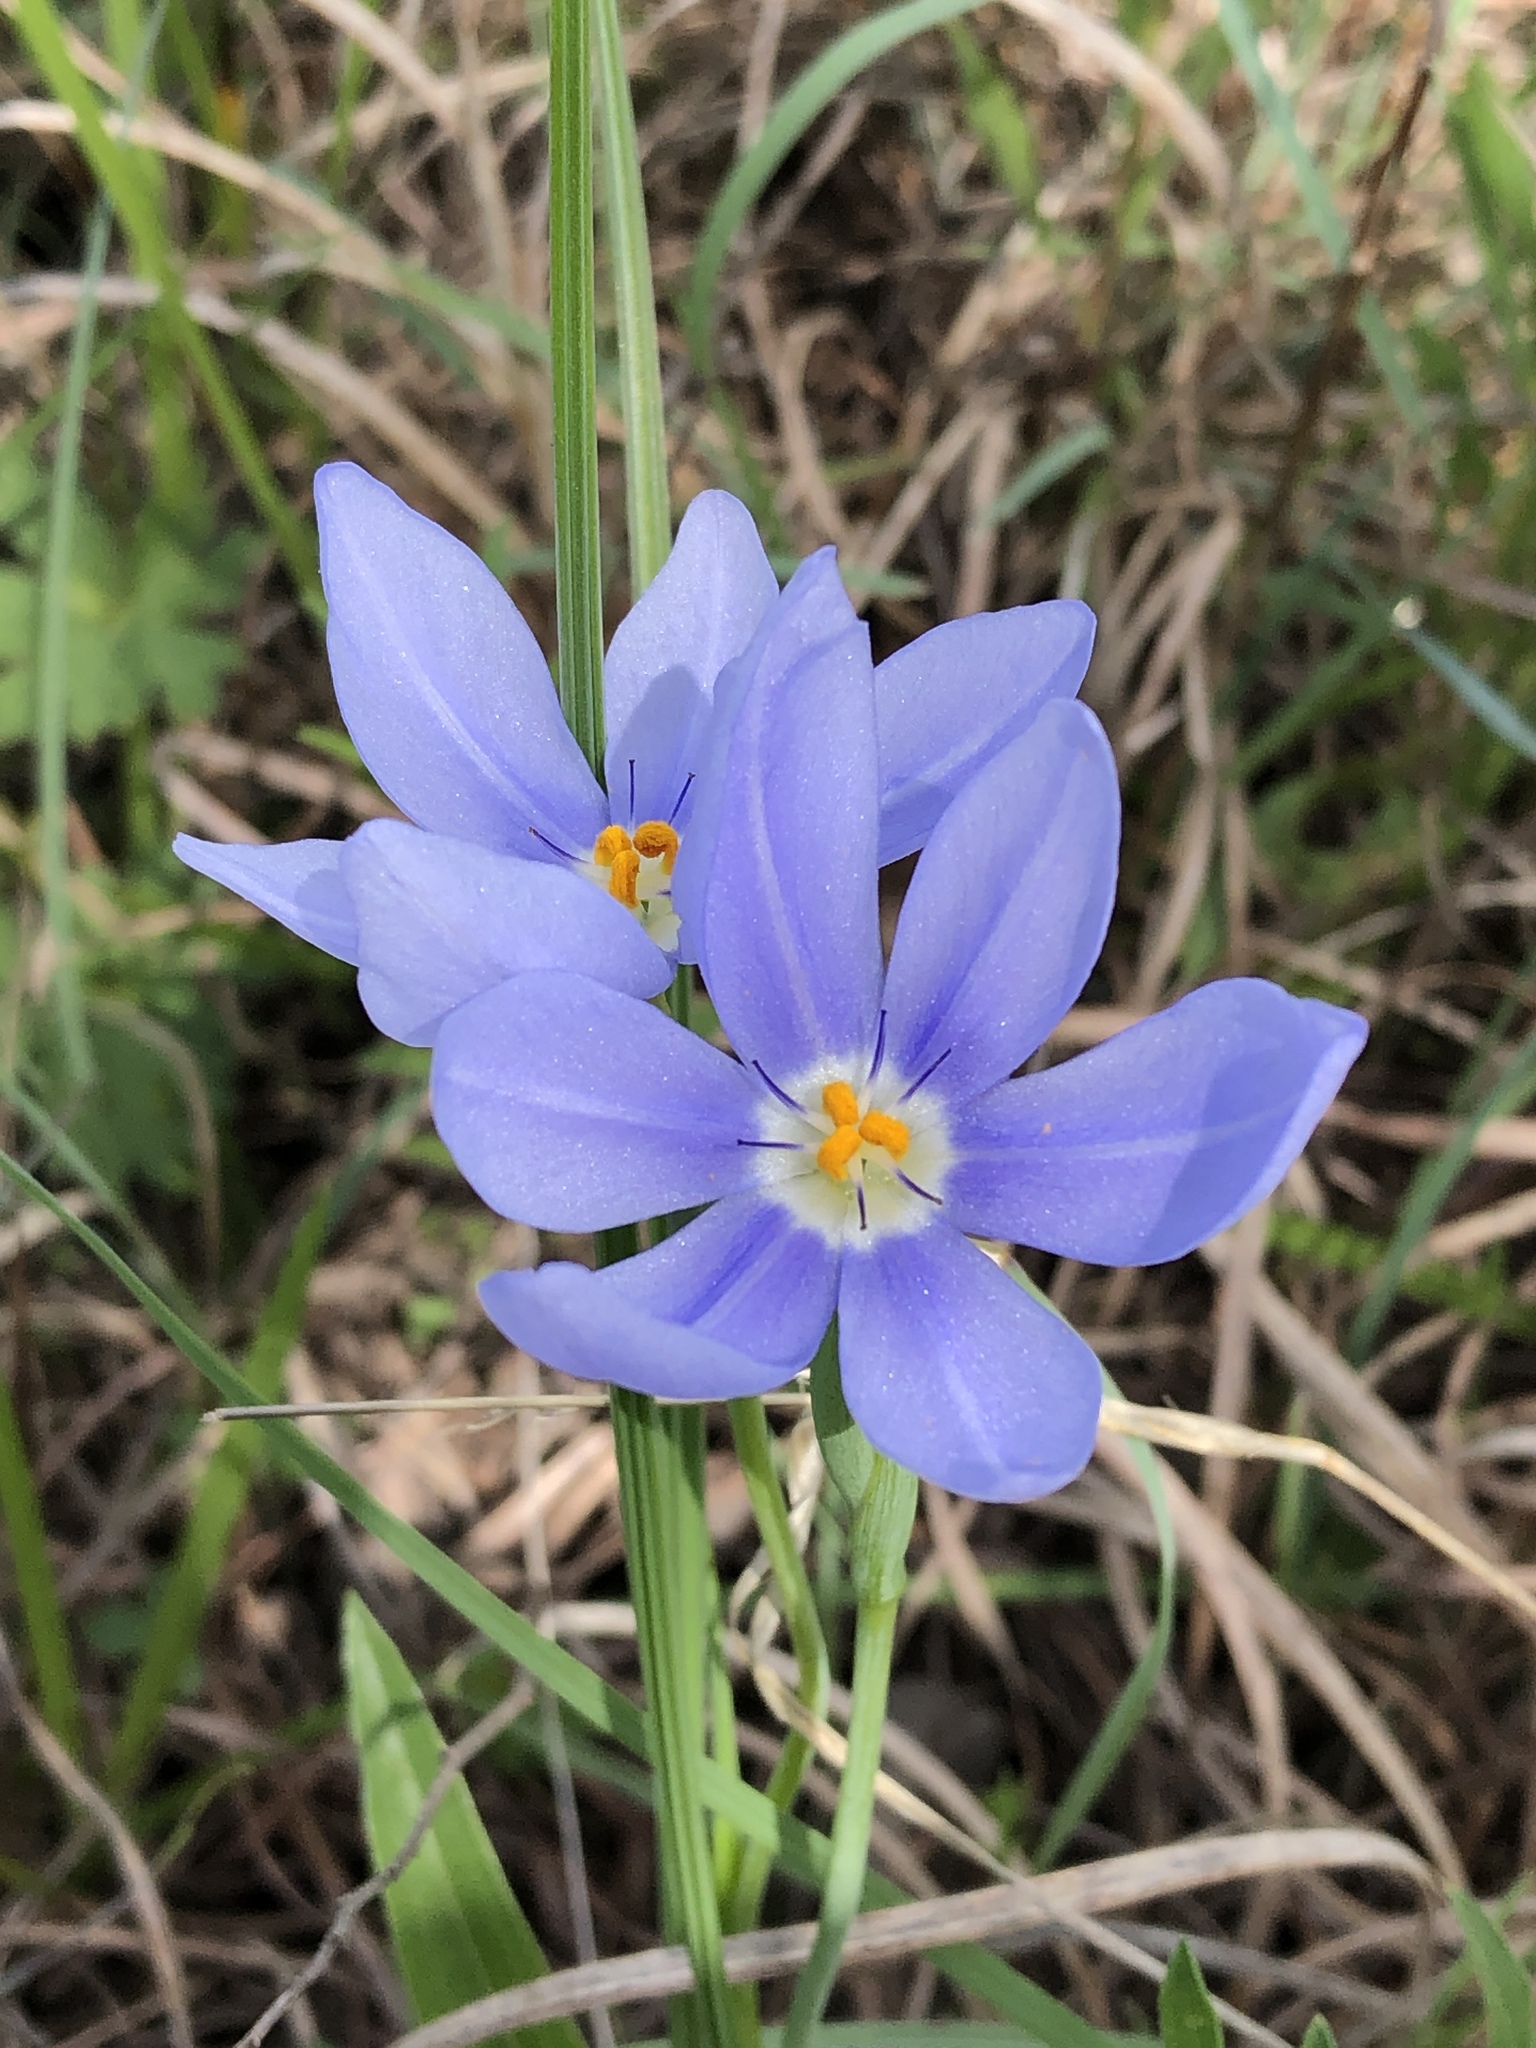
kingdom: Plantae
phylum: Tracheophyta
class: Liliopsida
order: Asparagales
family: Iridaceae
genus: Nemastylis
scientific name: Nemastylis geminiflora
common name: Prairie celestial
